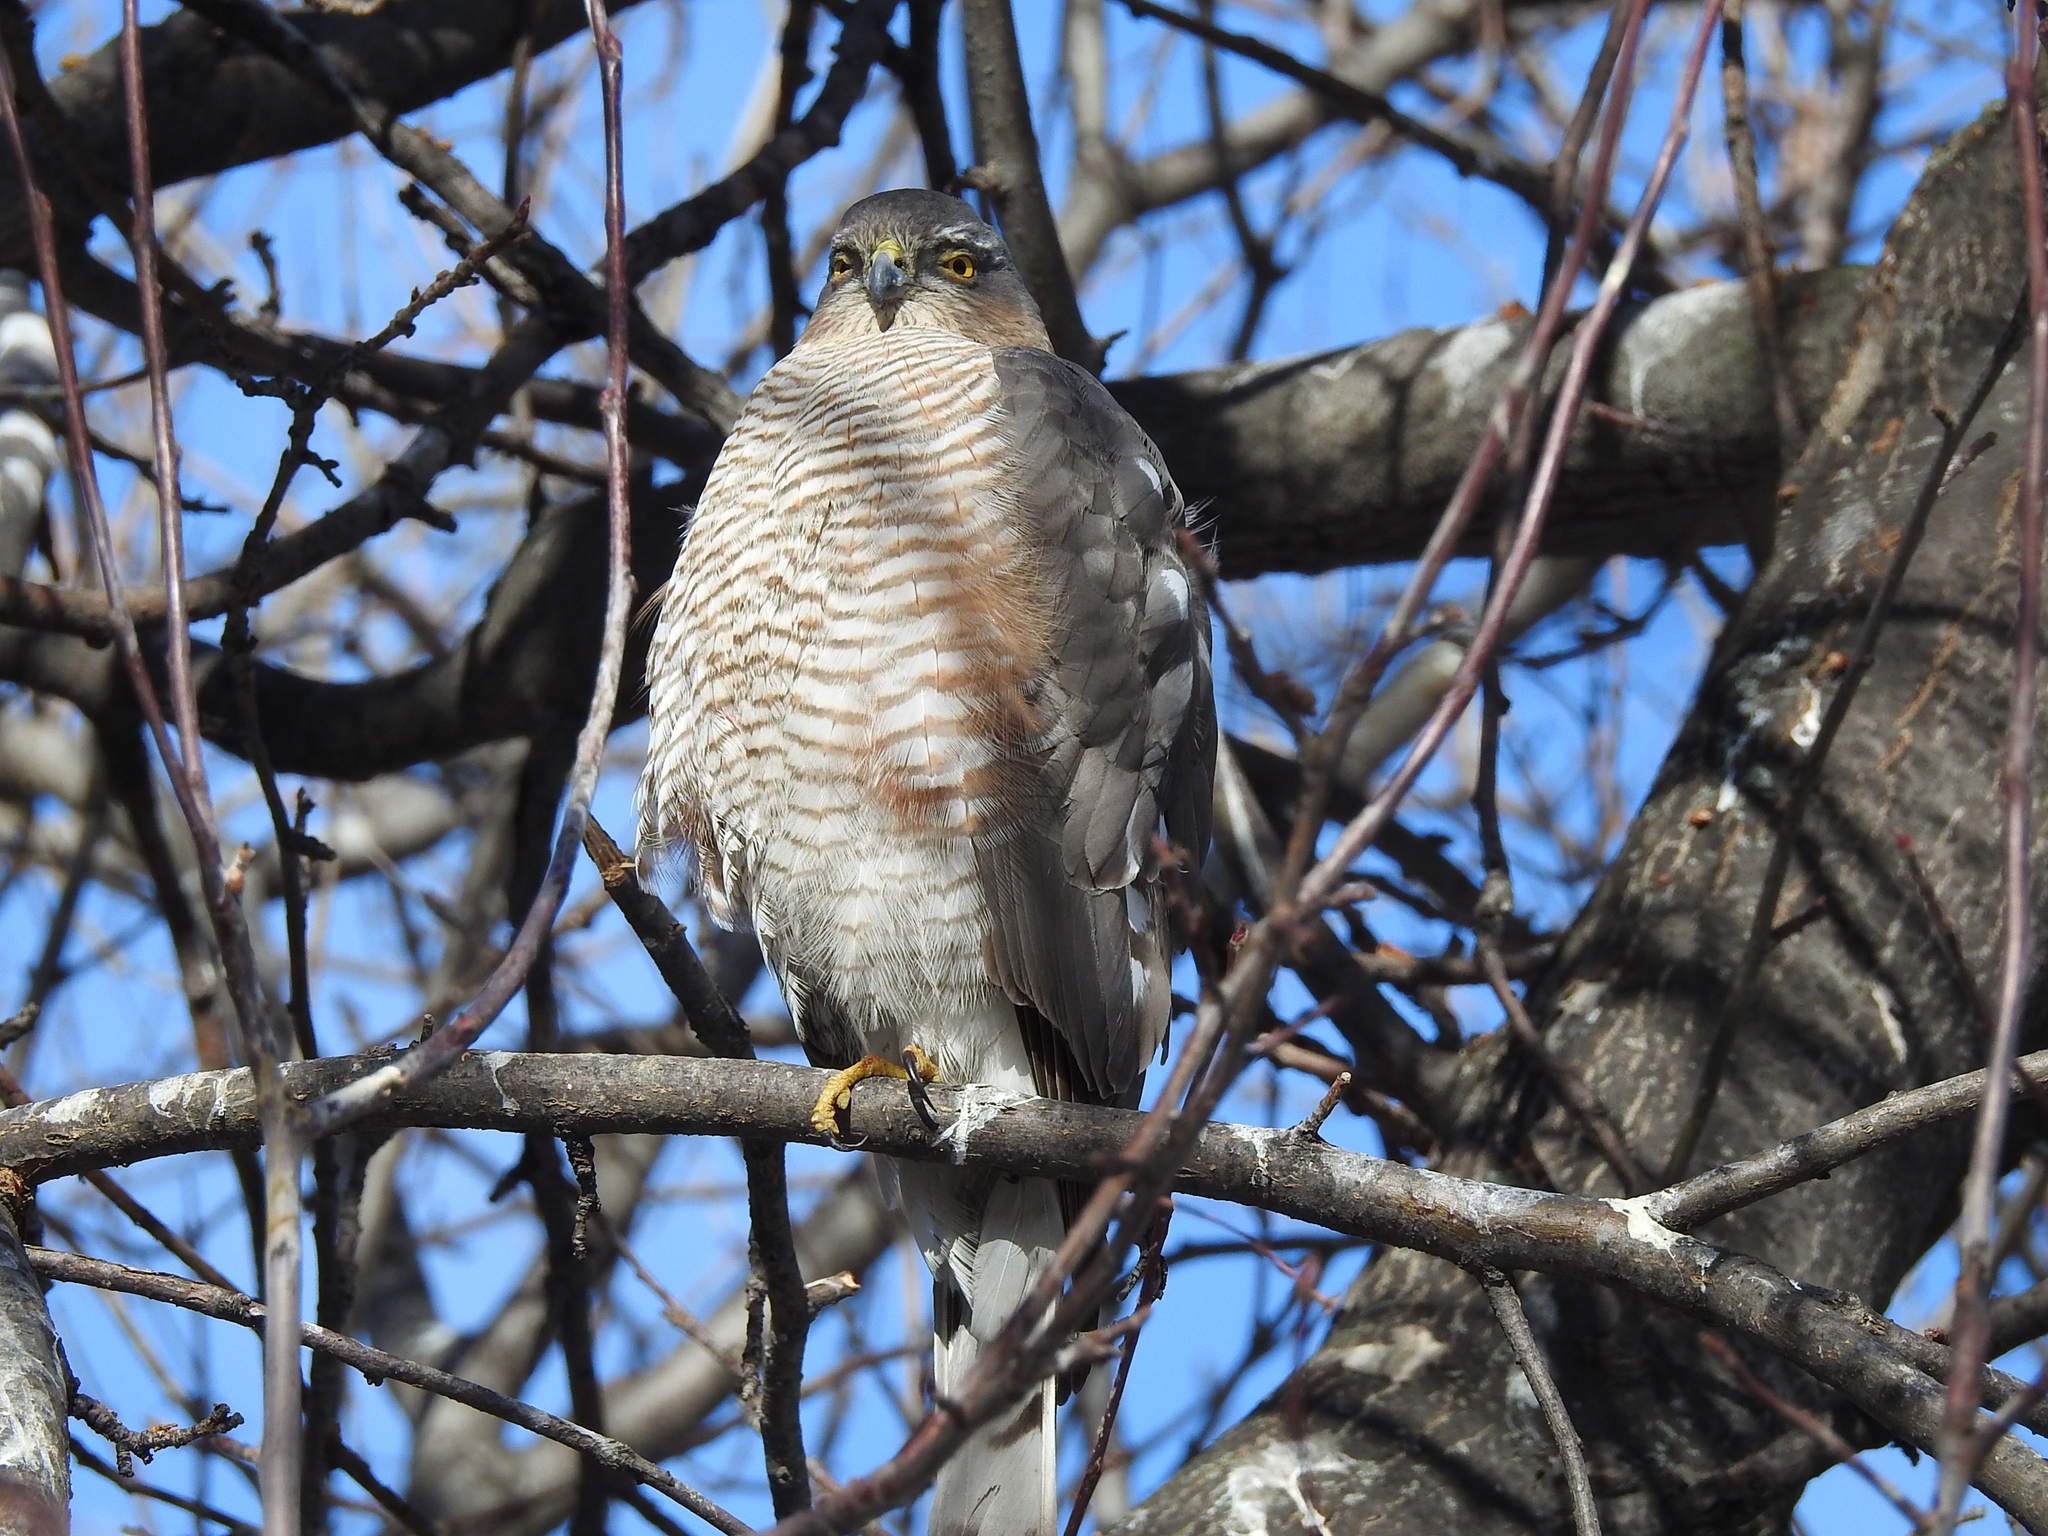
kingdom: Animalia
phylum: Chordata
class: Aves
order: Accipitriformes
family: Accipitridae
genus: Accipiter
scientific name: Accipiter nisus
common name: Eurasian sparrowhawk
